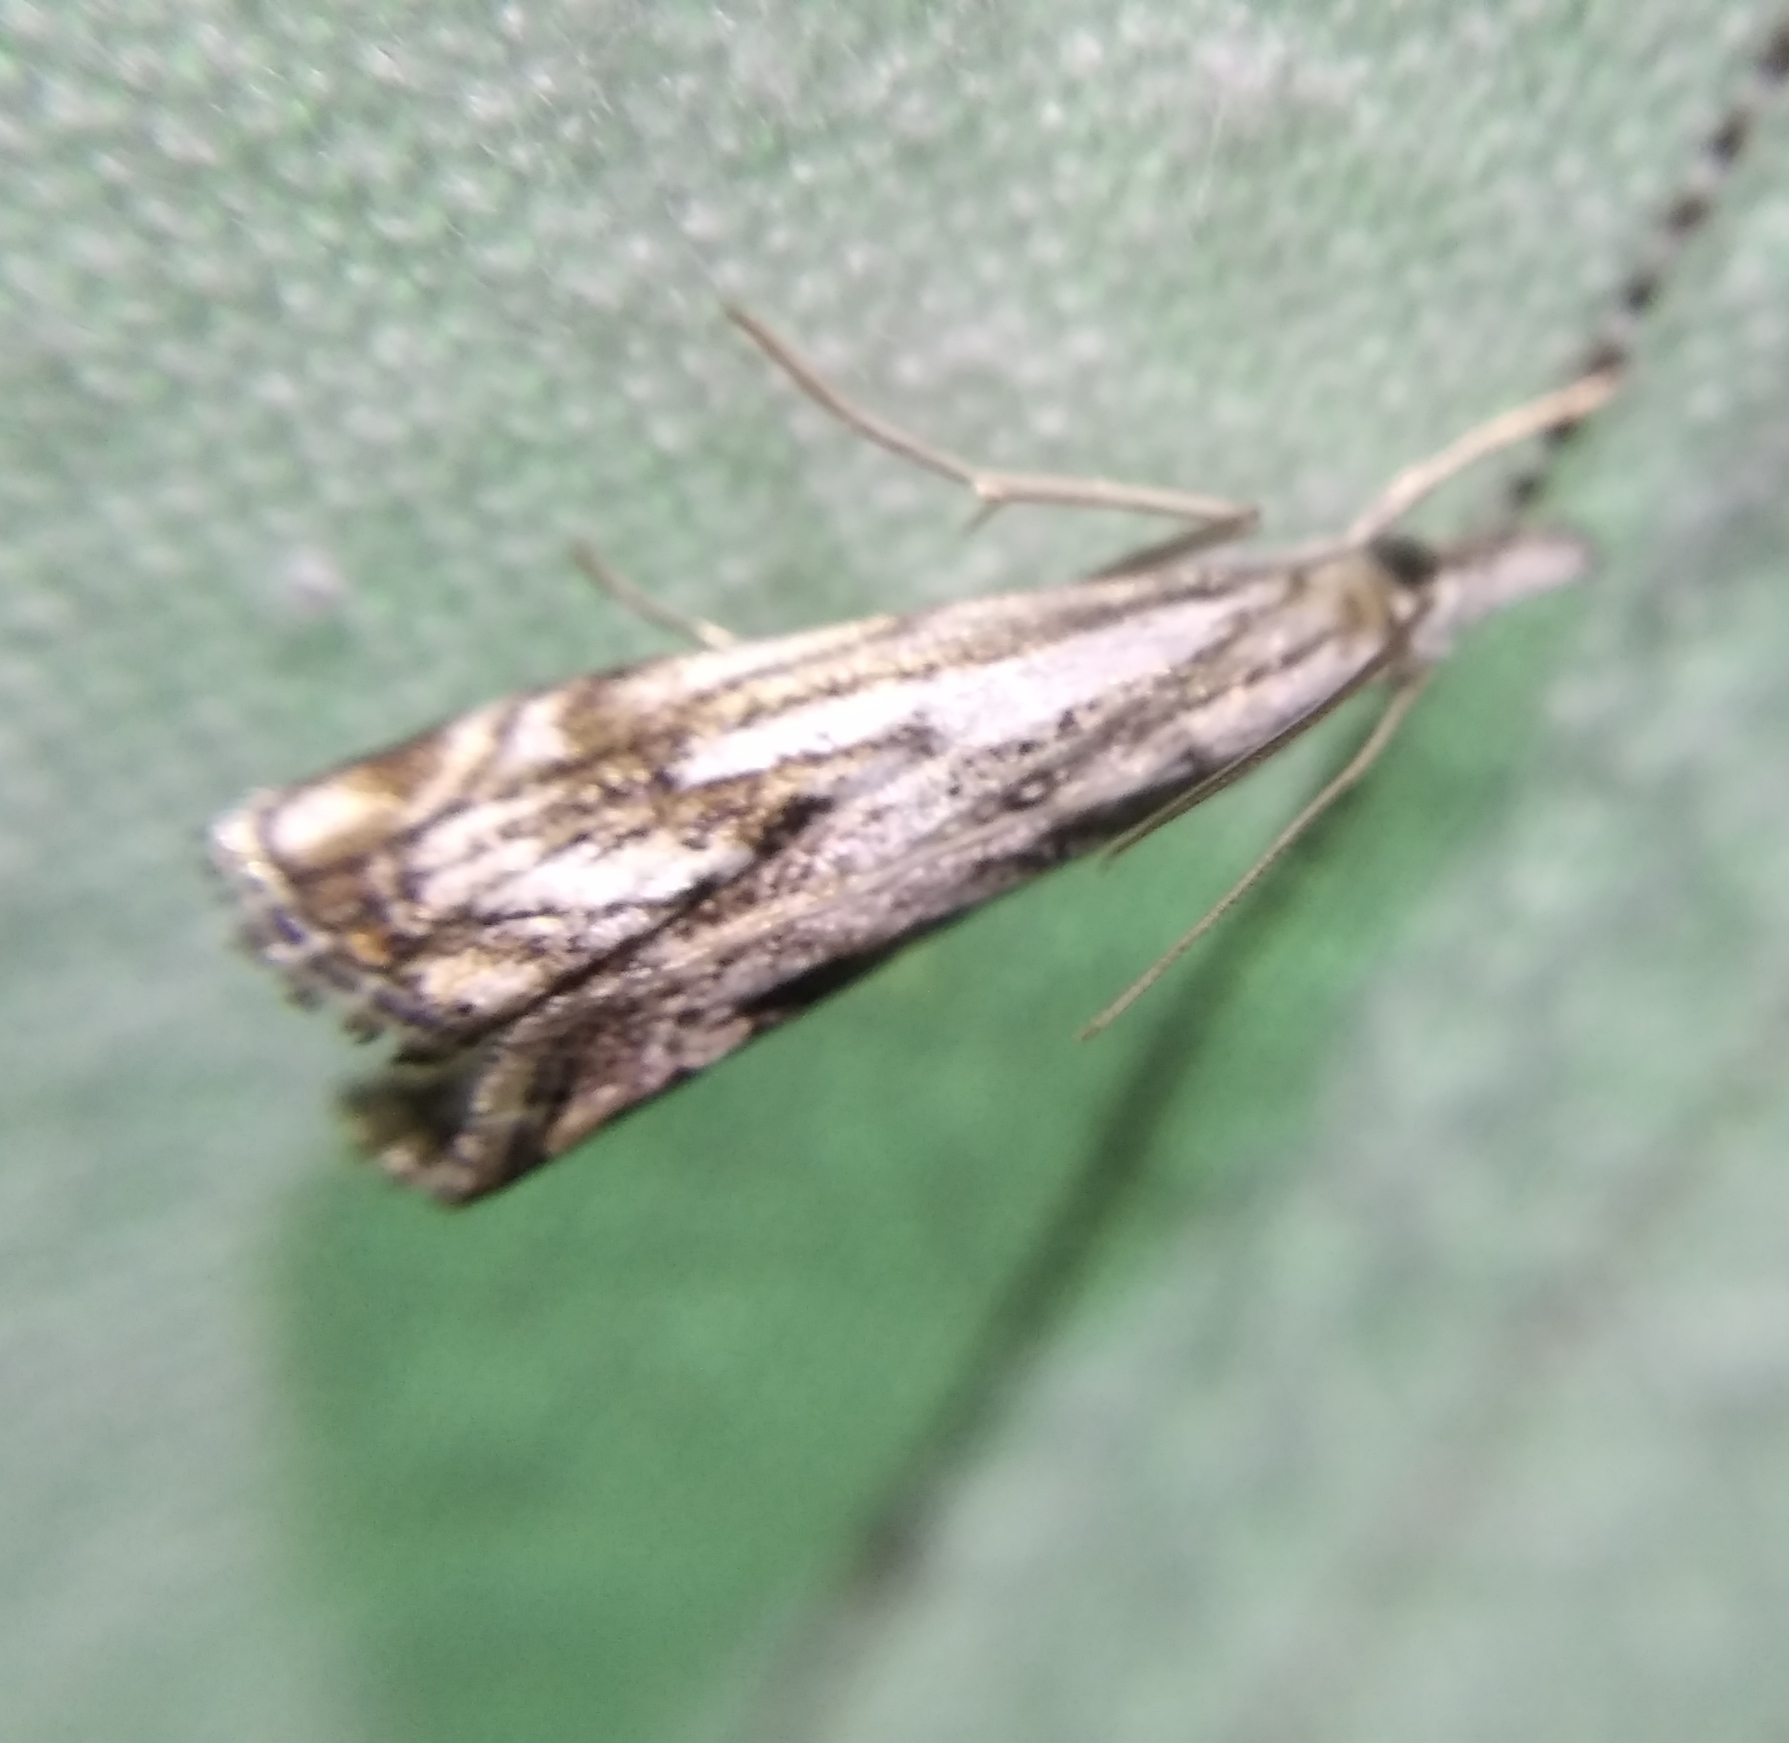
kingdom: Animalia
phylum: Arthropoda
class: Insecta
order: Lepidoptera
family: Crambidae
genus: Catoptria
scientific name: Catoptria falsella
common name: Chequered grass-veneer
